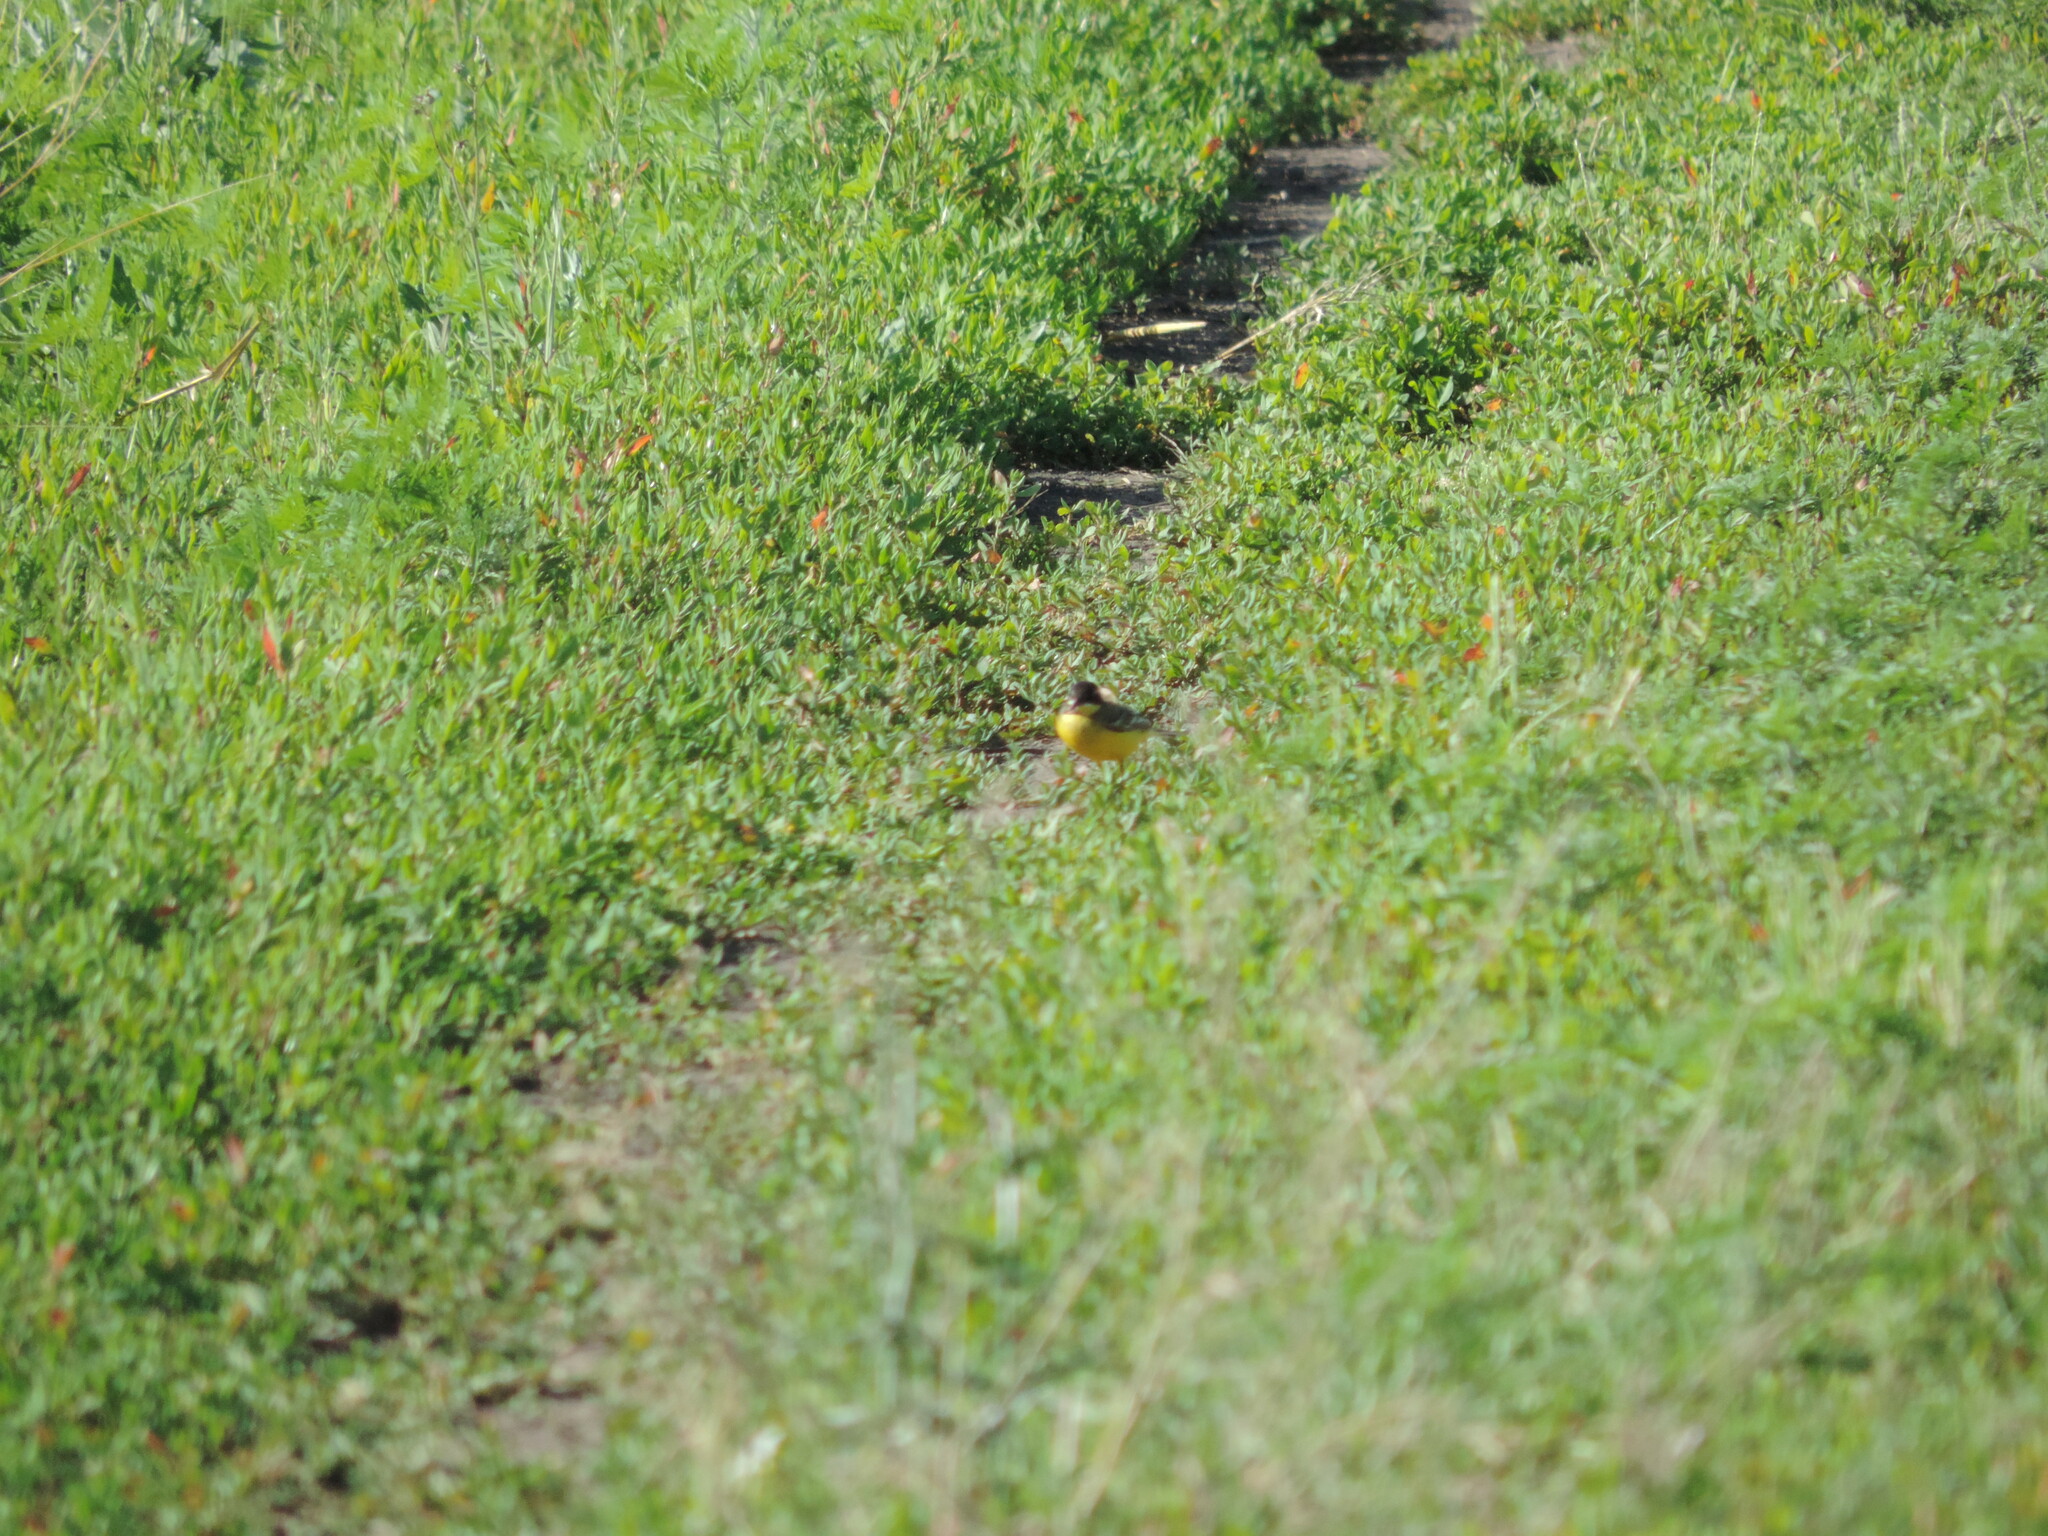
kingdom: Animalia
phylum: Chordata
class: Aves
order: Passeriformes
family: Motacillidae
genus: Motacilla
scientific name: Motacilla flava
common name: Western yellow wagtail
